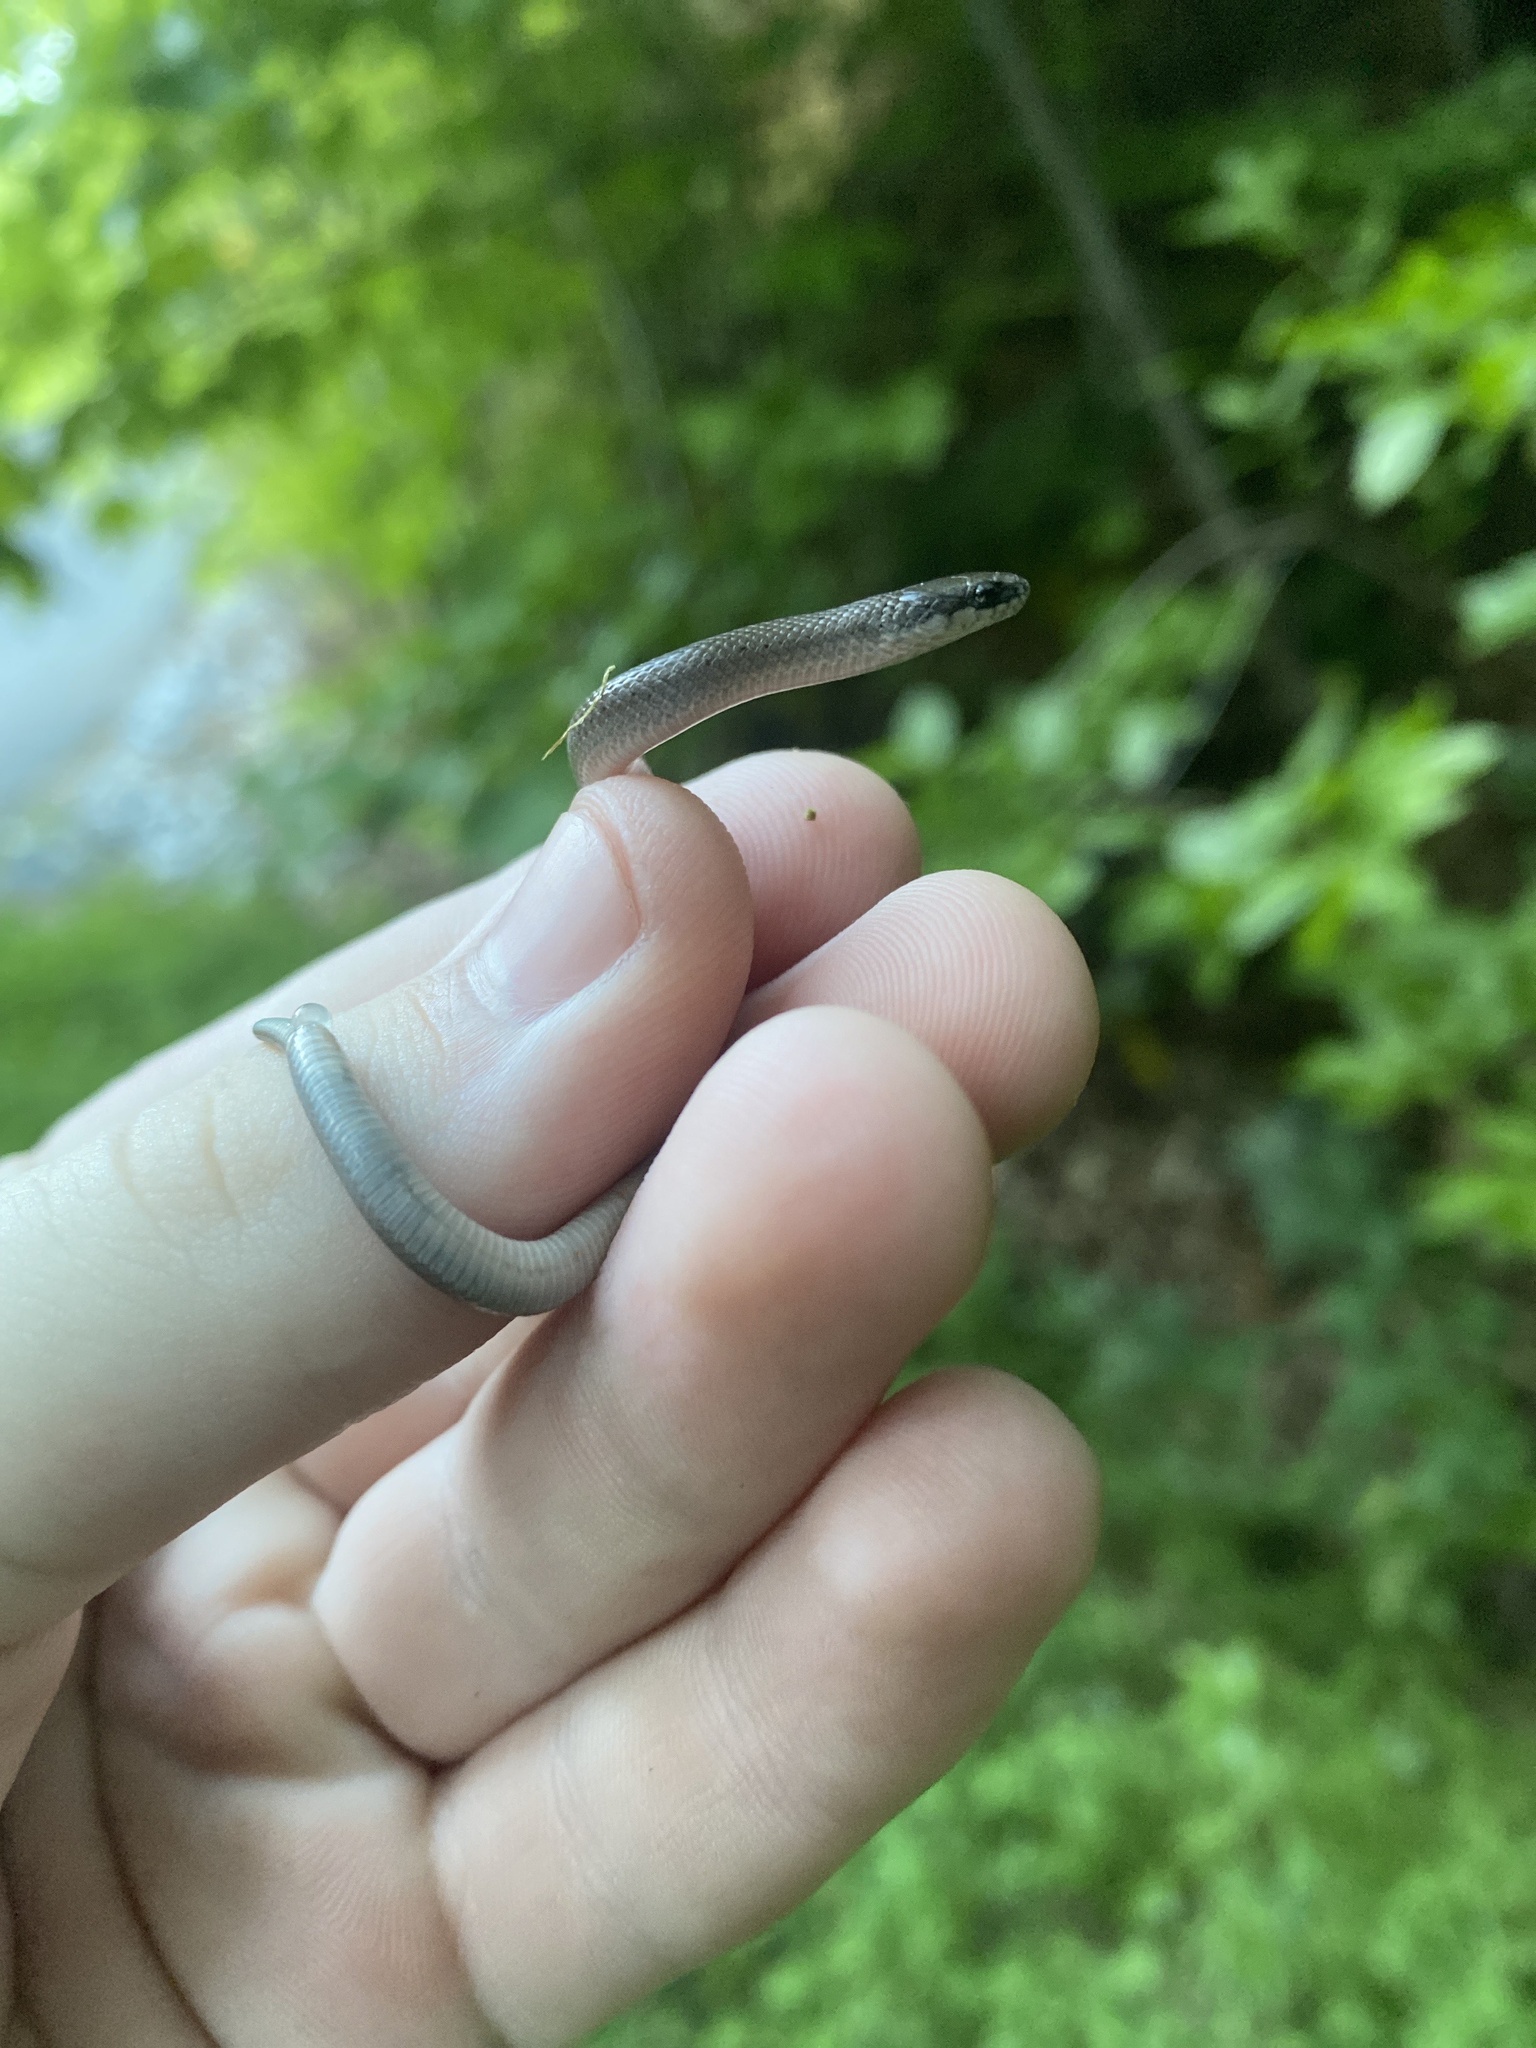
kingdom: Animalia
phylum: Chordata
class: Squamata
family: Colubridae
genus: Virginia
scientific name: Virginia valeriae
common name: Smooth earth snake
